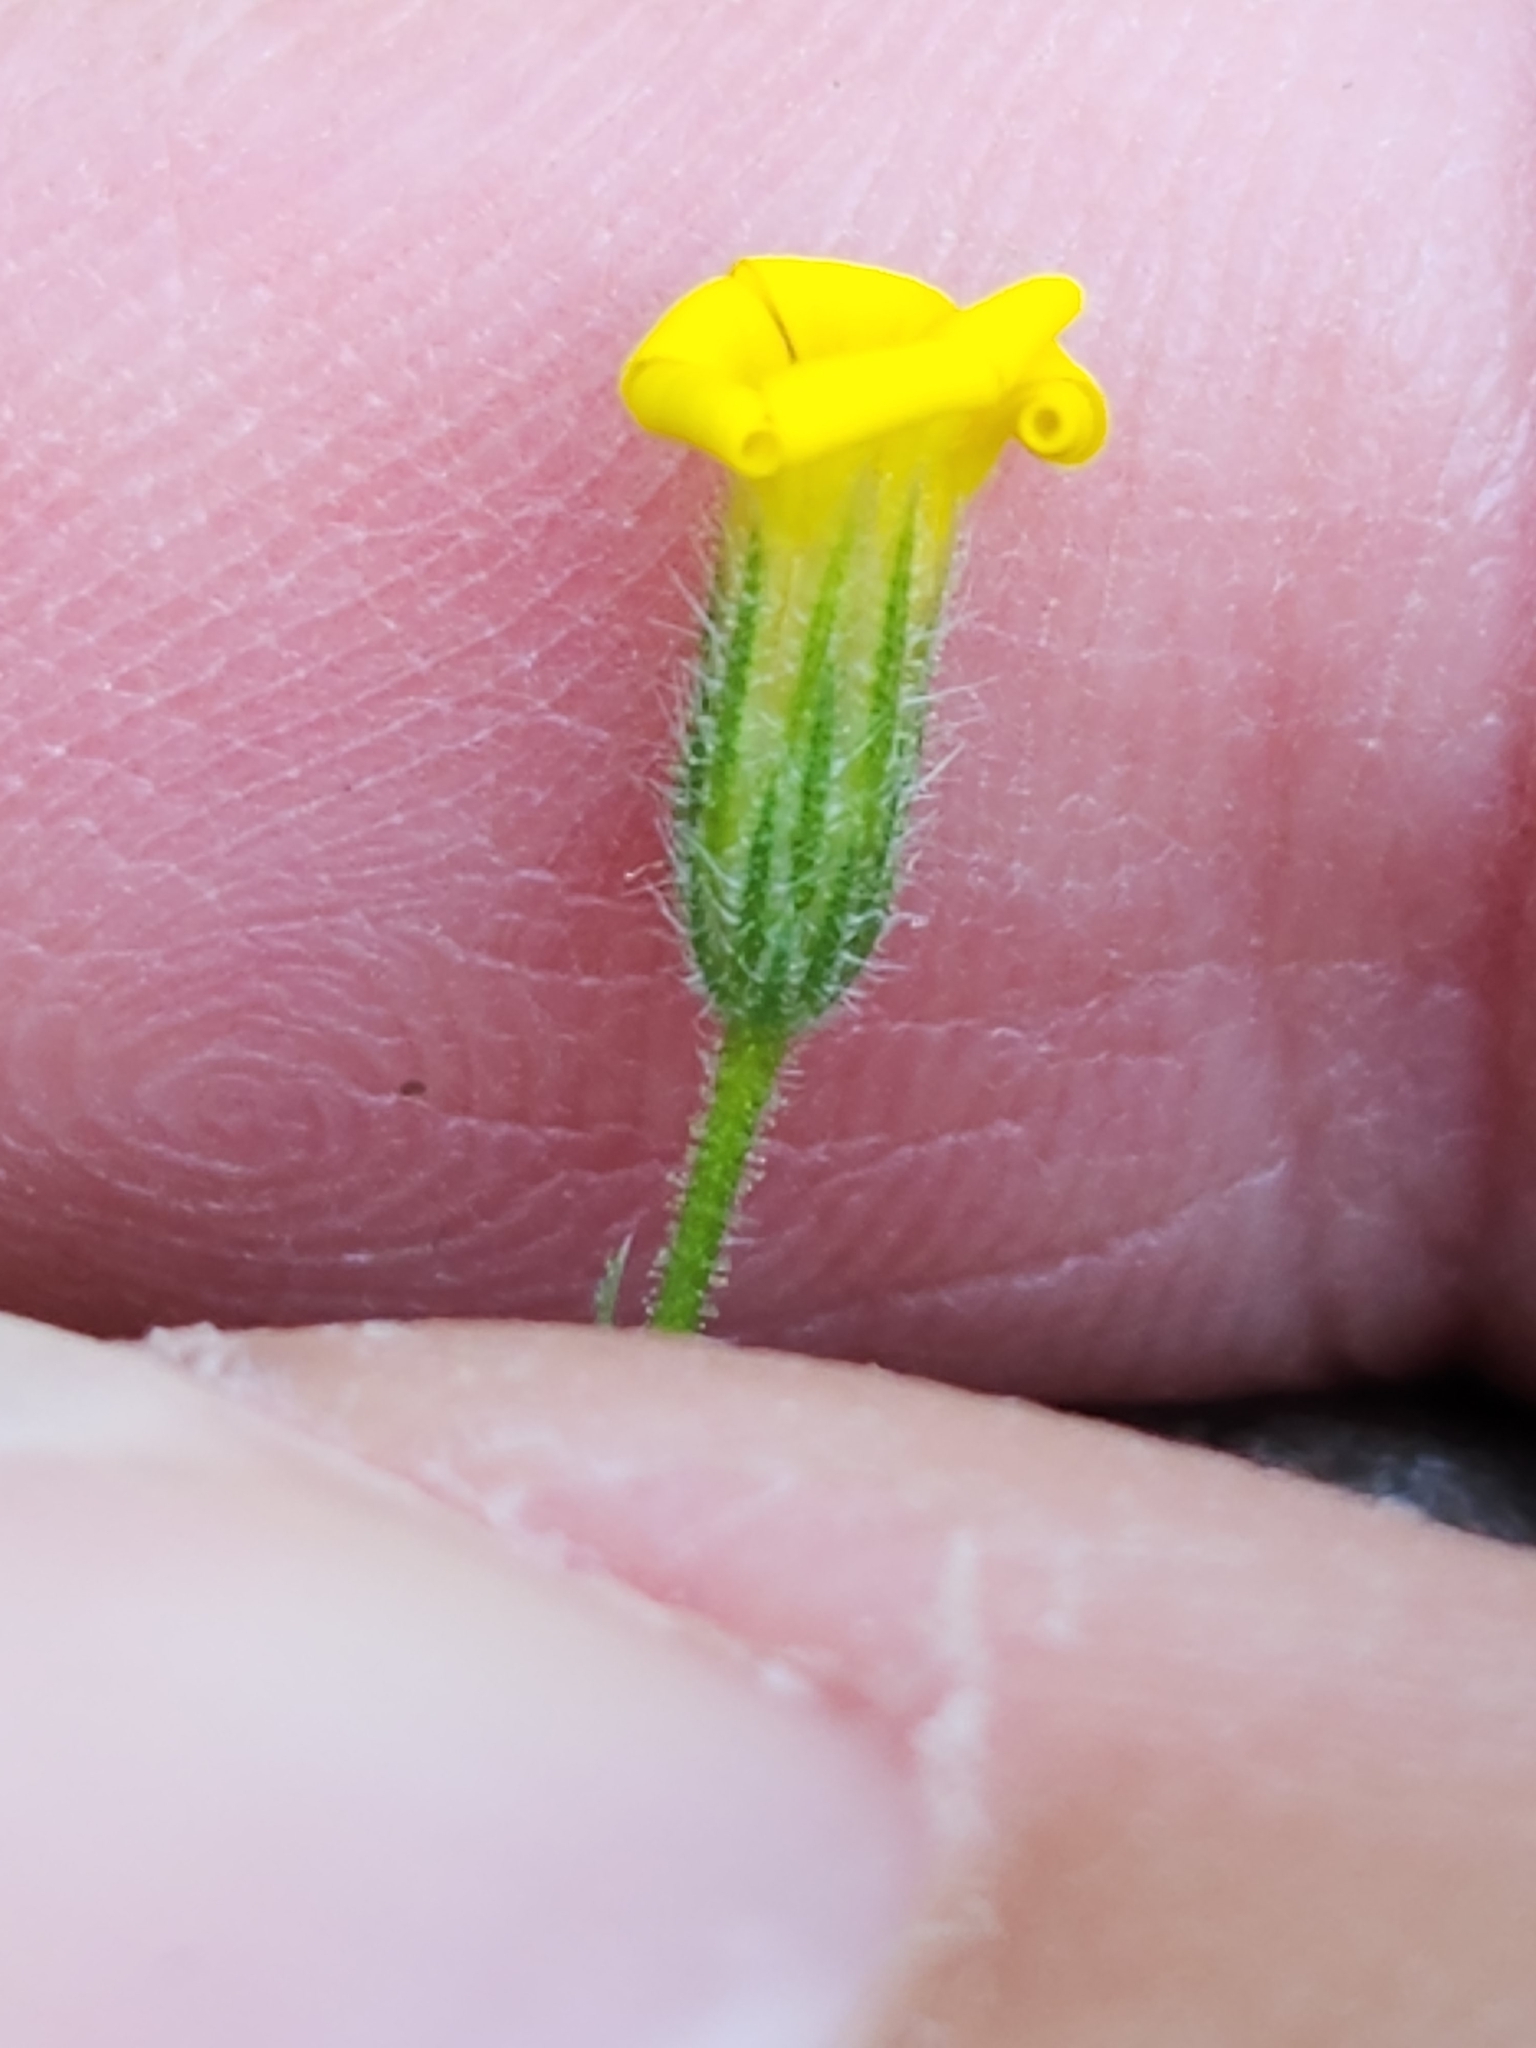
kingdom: Plantae
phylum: Tracheophyta
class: Magnoliopsida
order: Asterales
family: Asteraceae
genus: Croptilon
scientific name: Croptilon divaricatum
